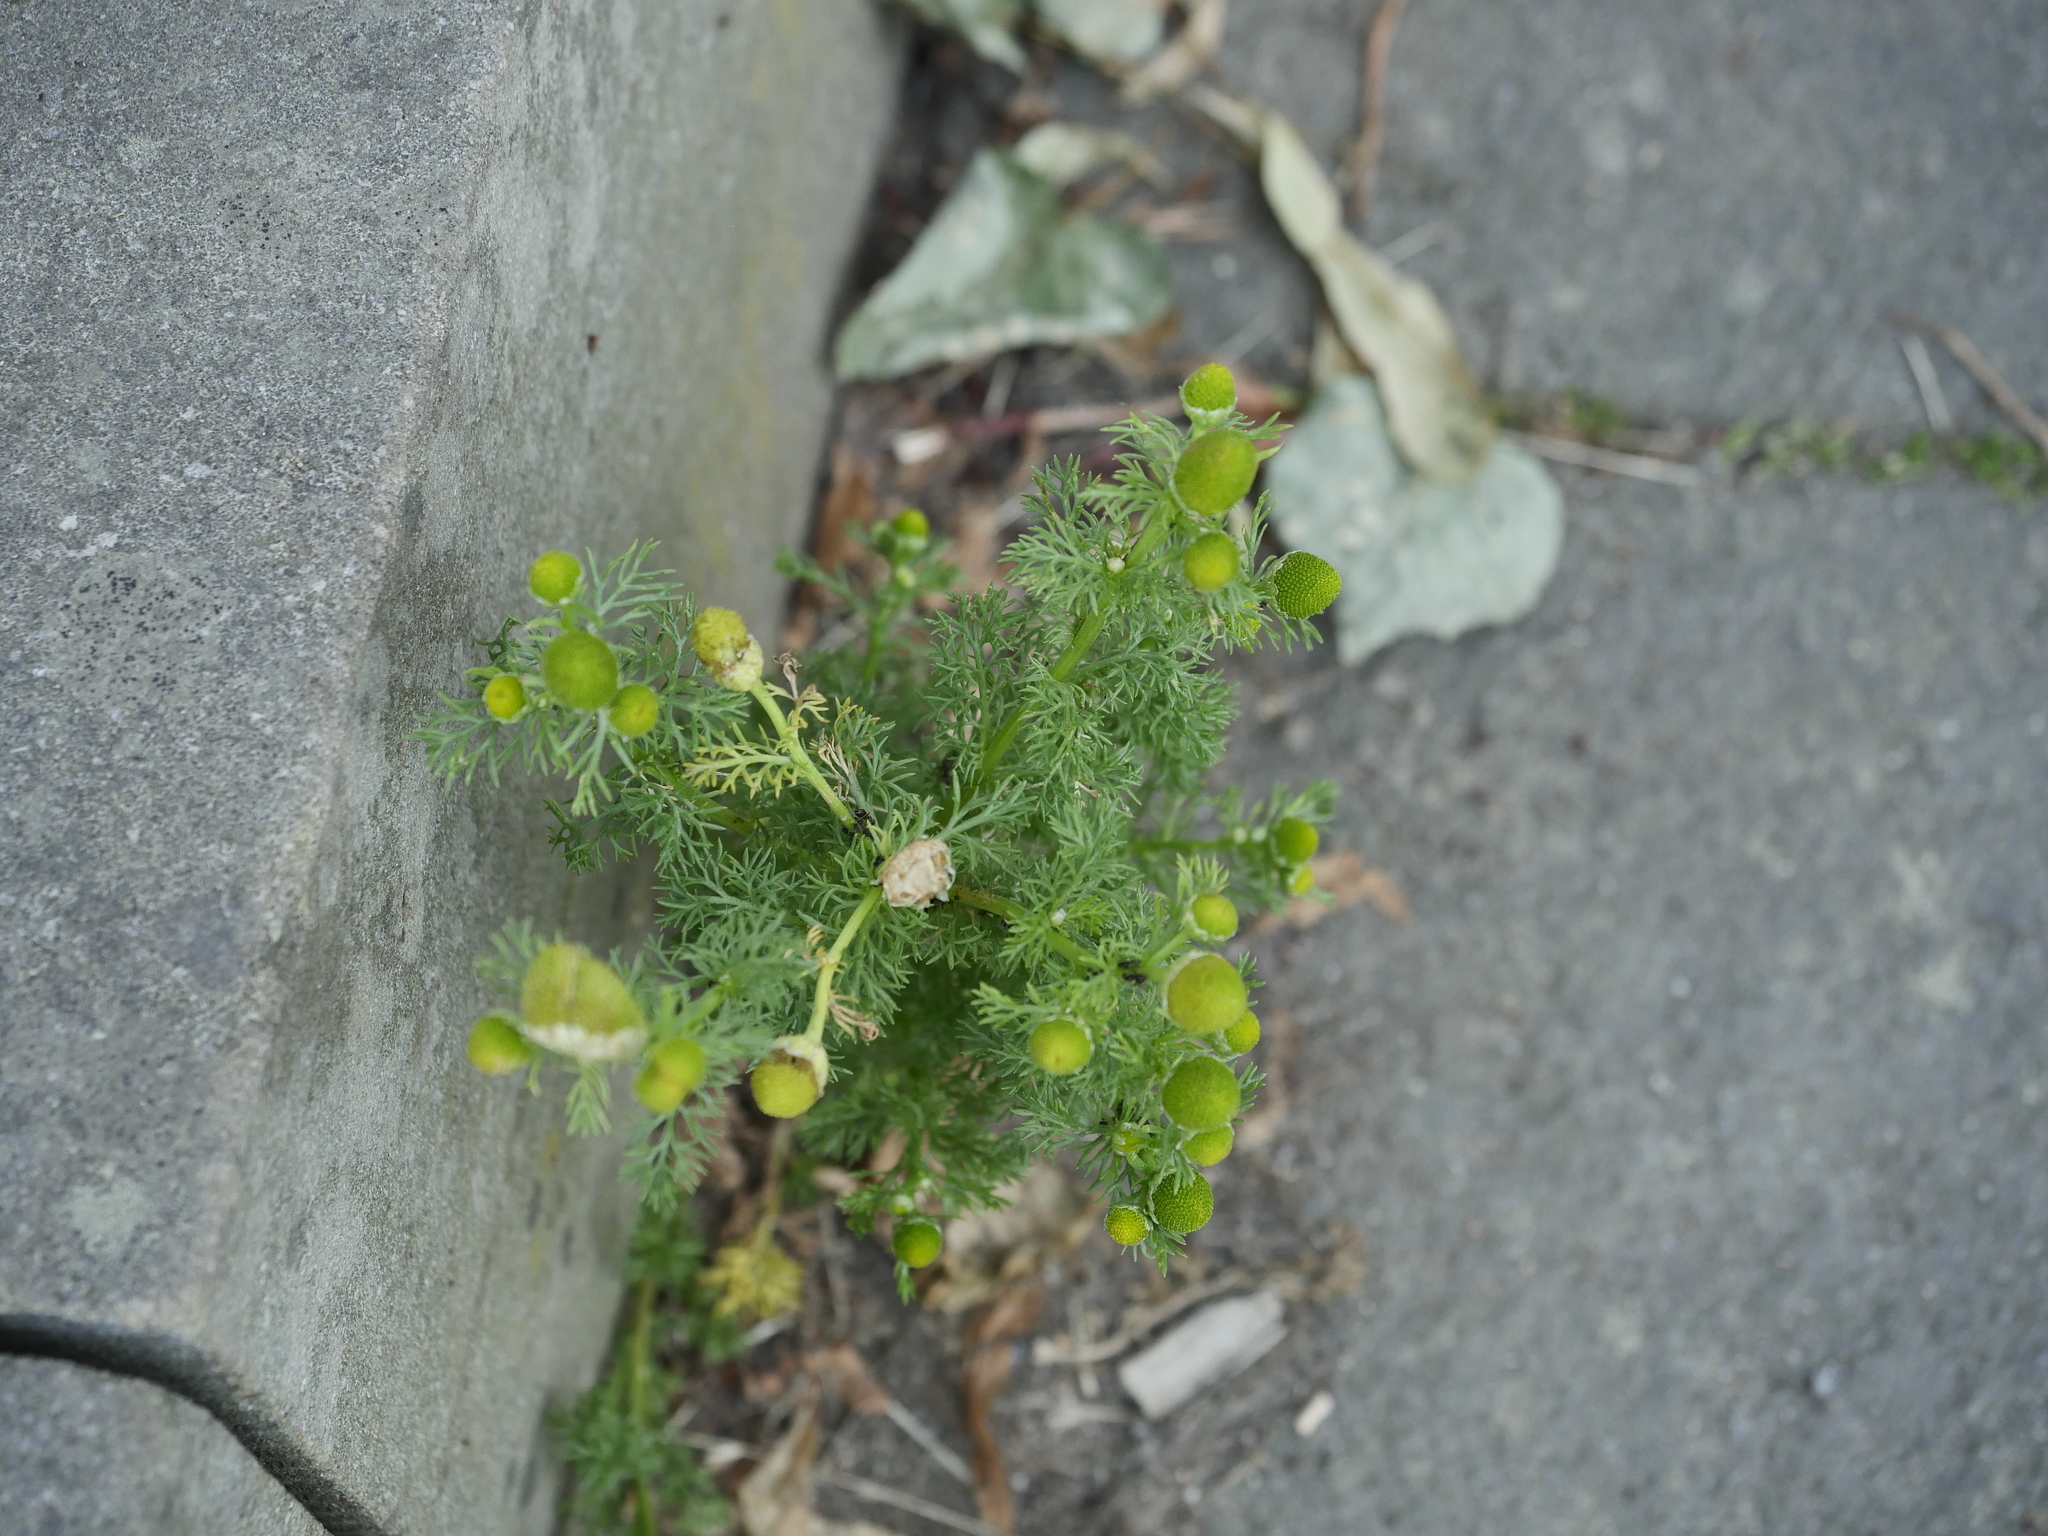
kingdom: Plantae
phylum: Tracheophyta
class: Magnoliopsida
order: Asterales
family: Asteraceae
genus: Matricaria
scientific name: Matricaria discoidea
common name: Disc mayweed
